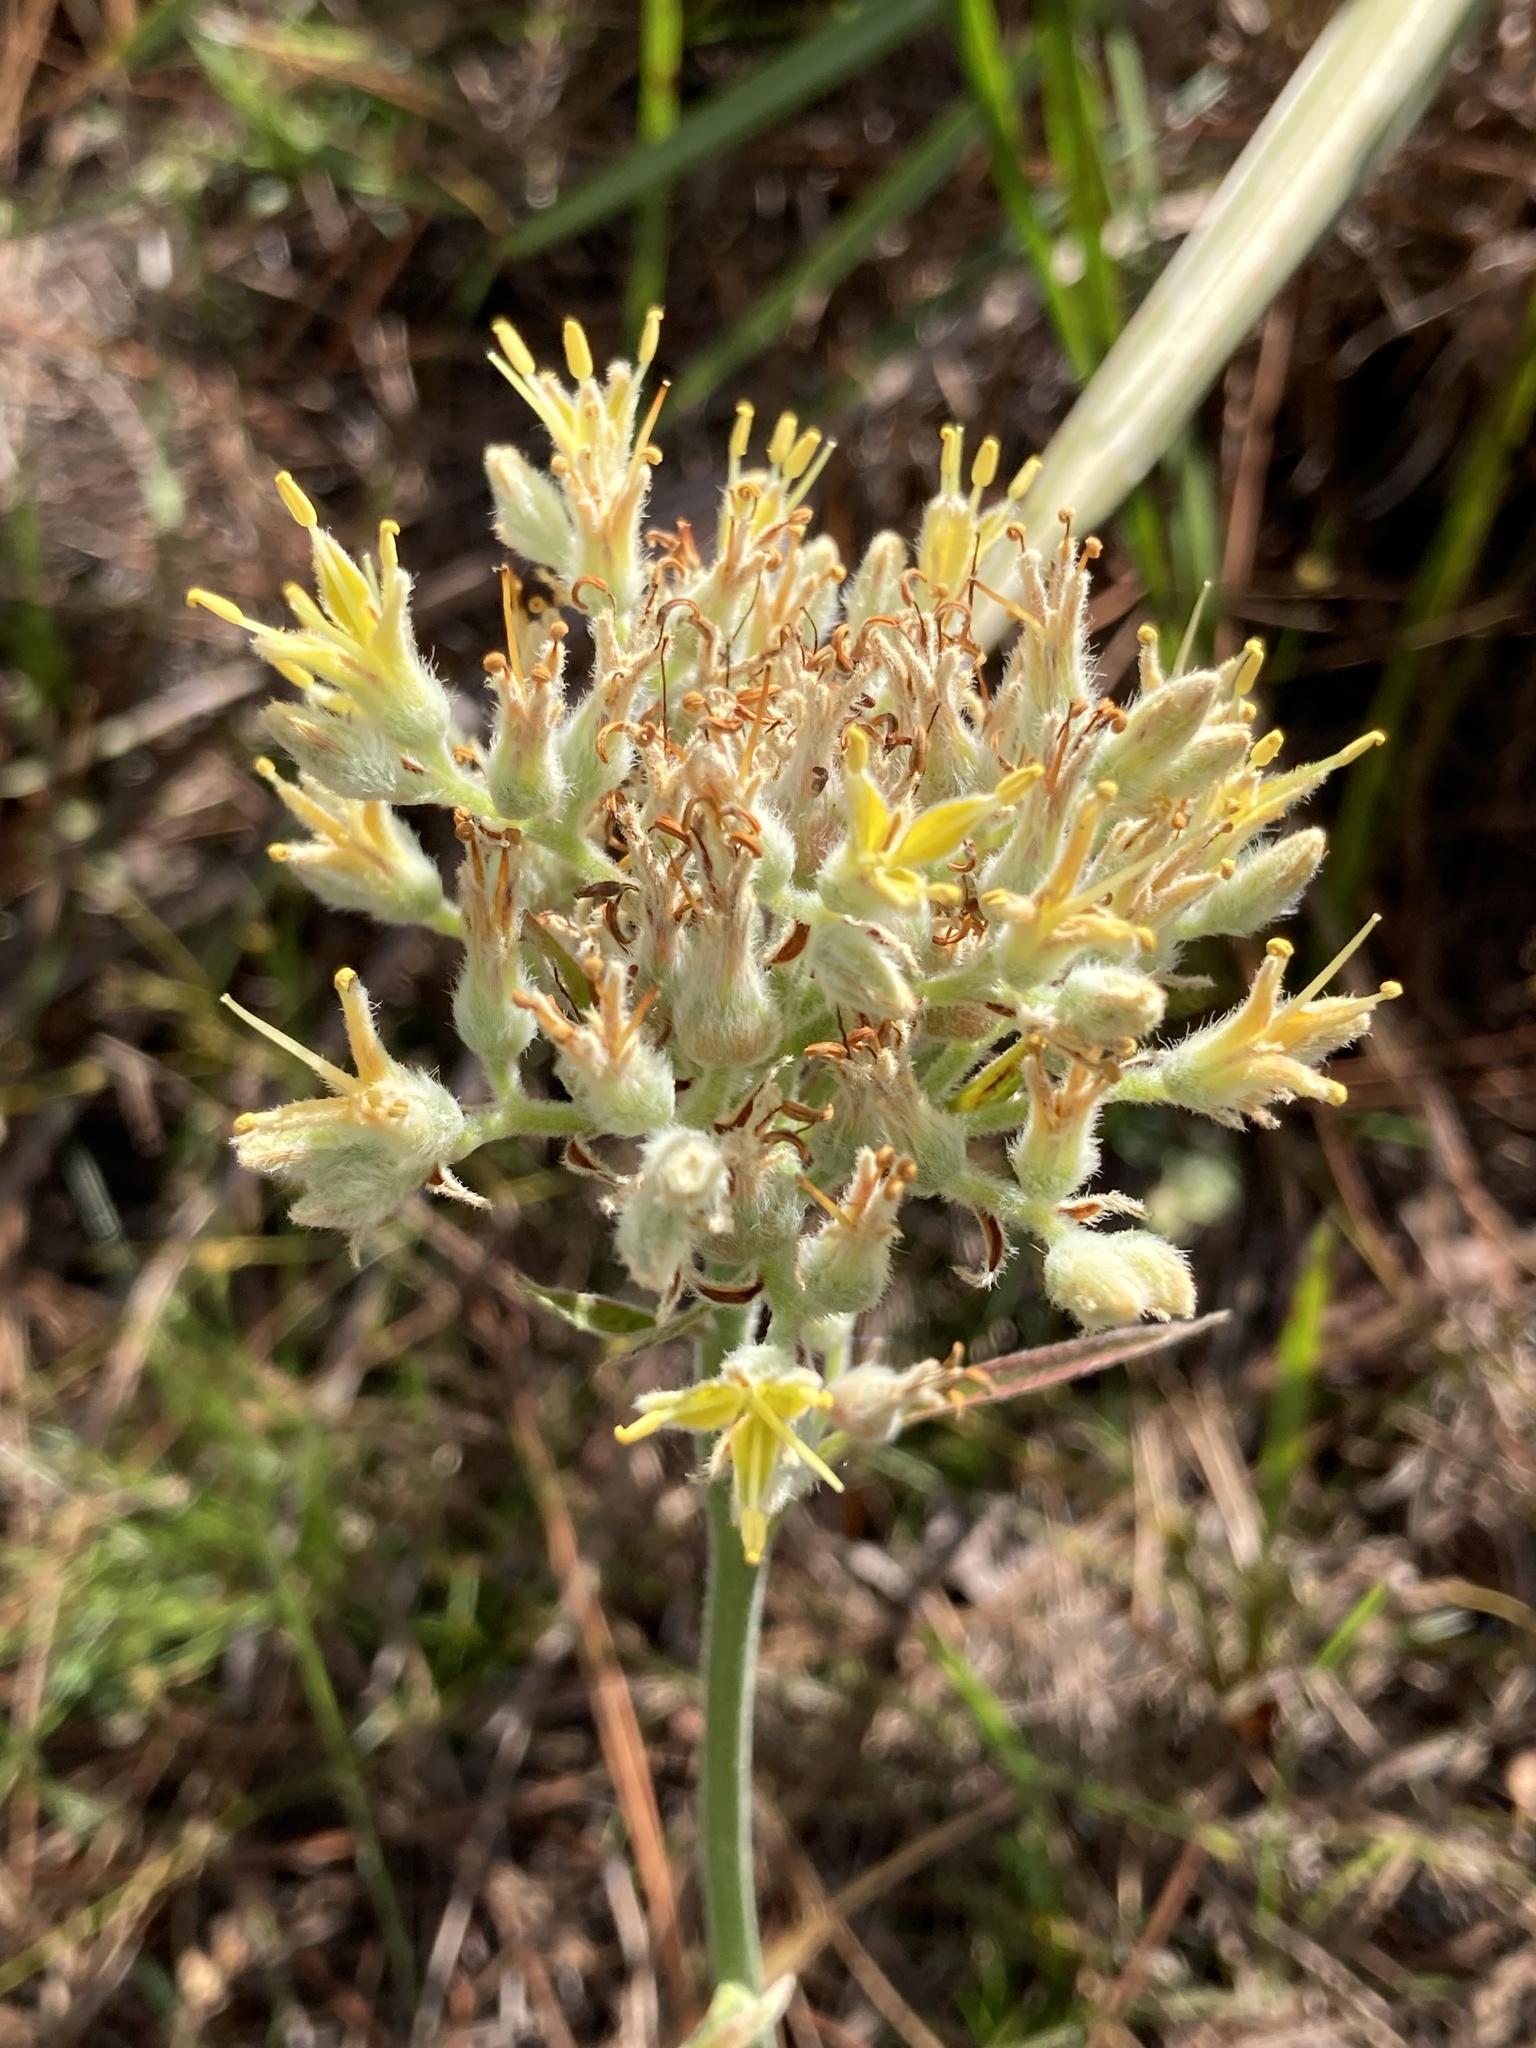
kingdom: Plantae
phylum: Tracheophyta
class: Liliopsida
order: Commelinales
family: Haemodoraceae
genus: Lachnanthes
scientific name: Lachnanthes caroliana
